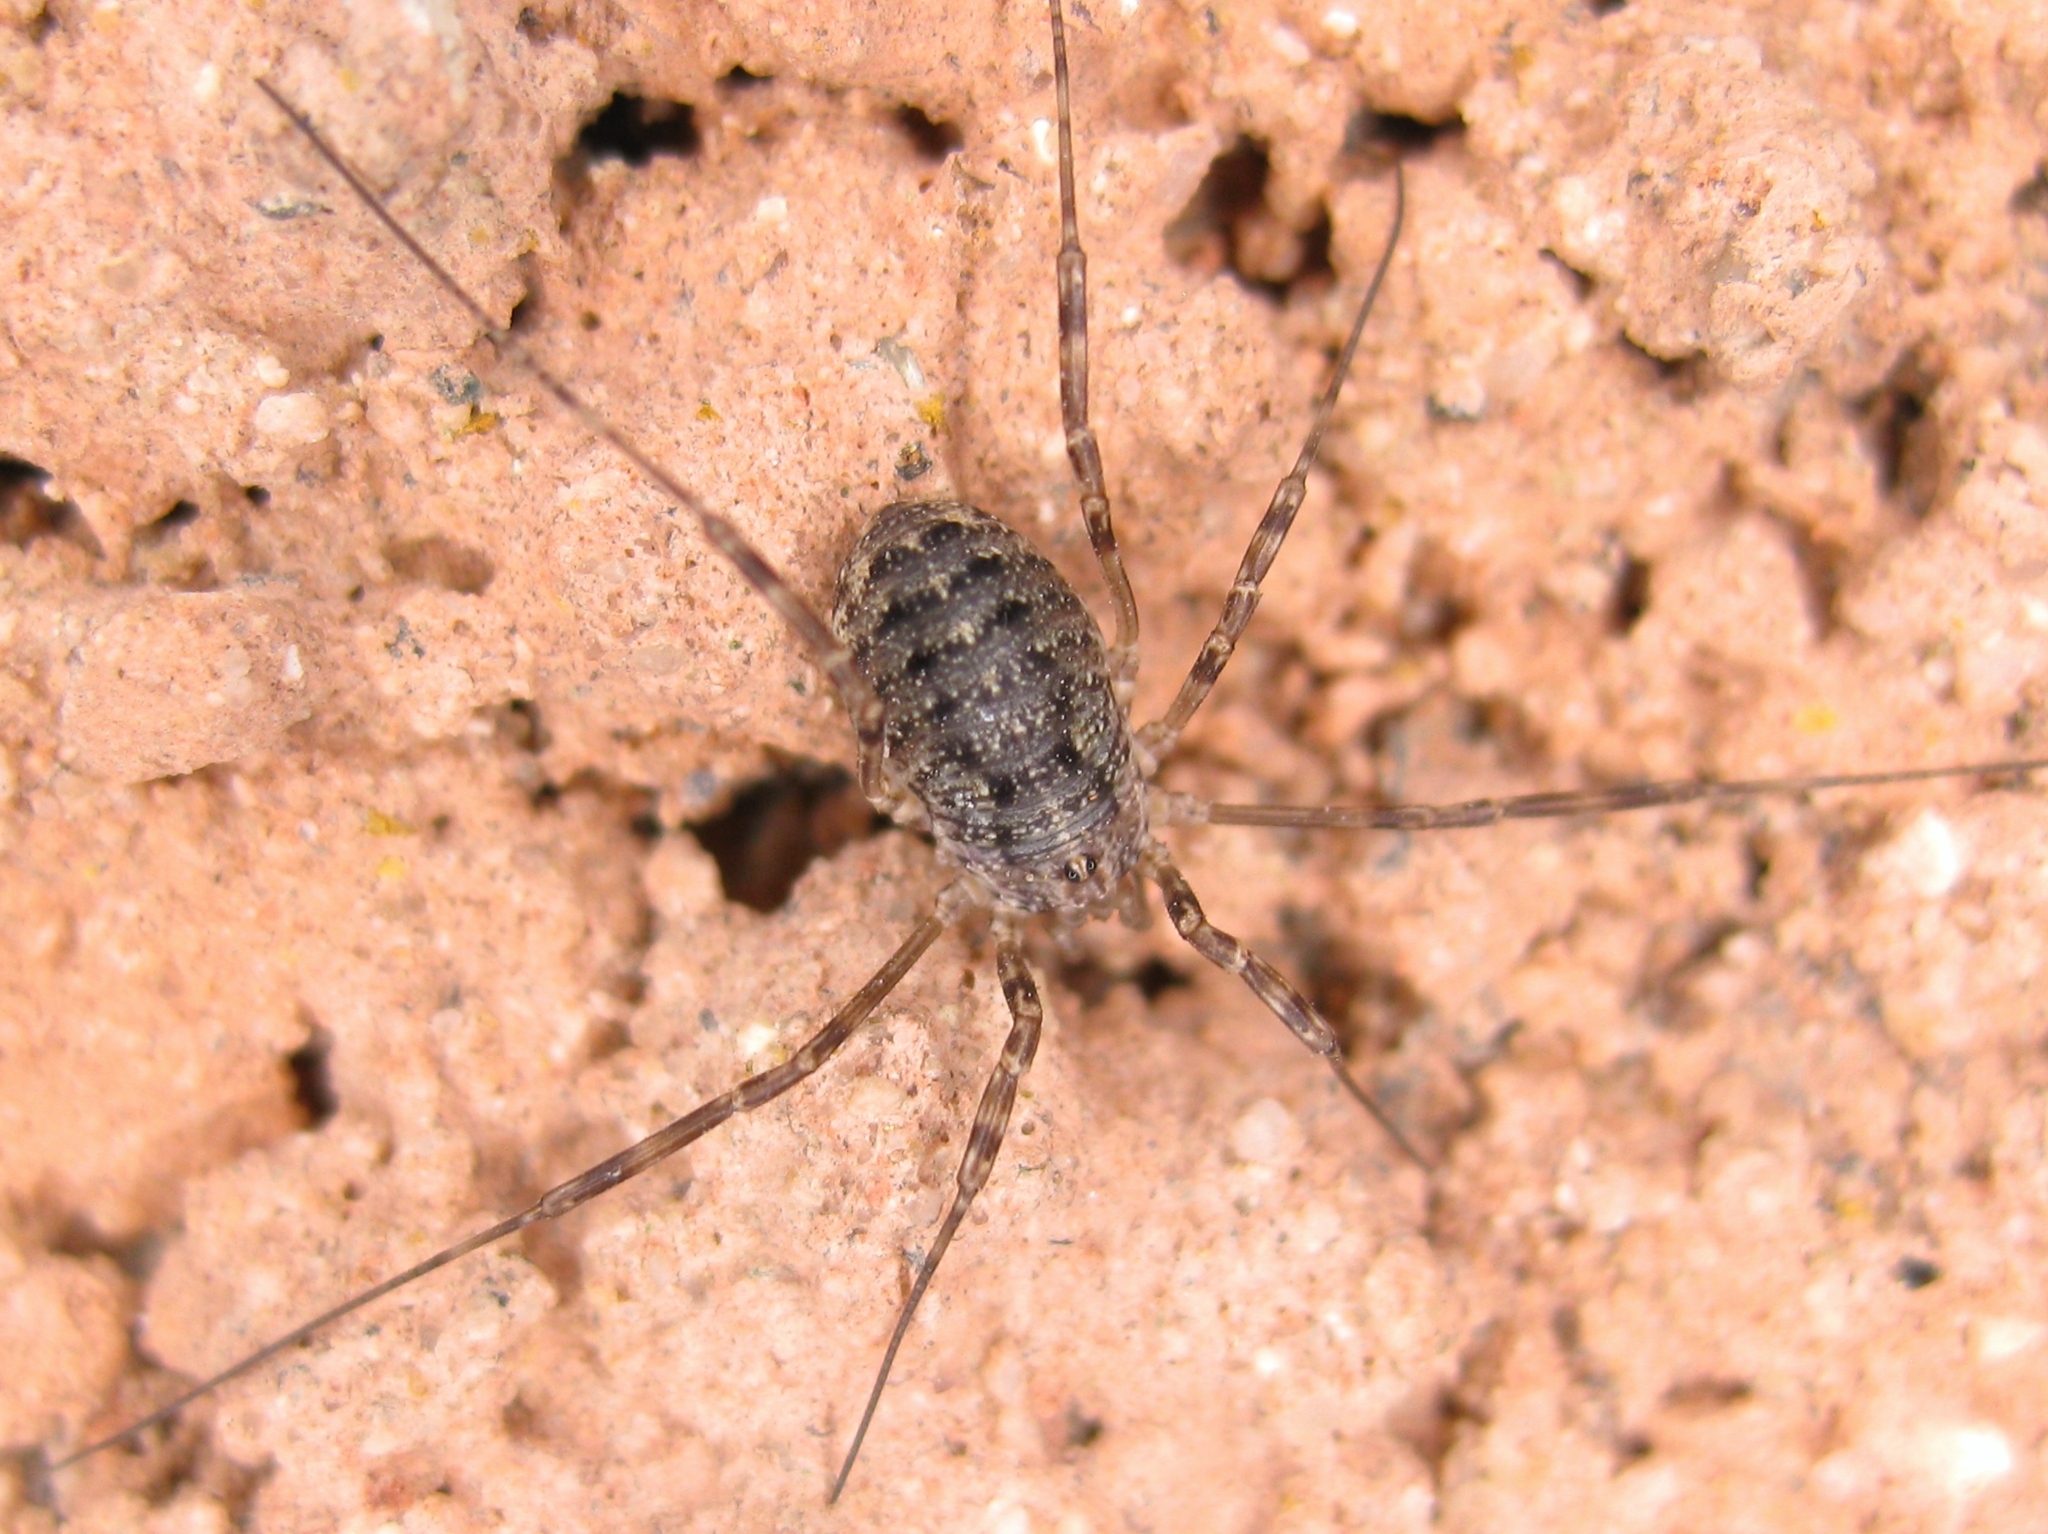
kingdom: Animalia
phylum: Arthropoda
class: Arachnida
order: Opiliones
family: Phalangiidae
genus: Opilio
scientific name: Opilio
